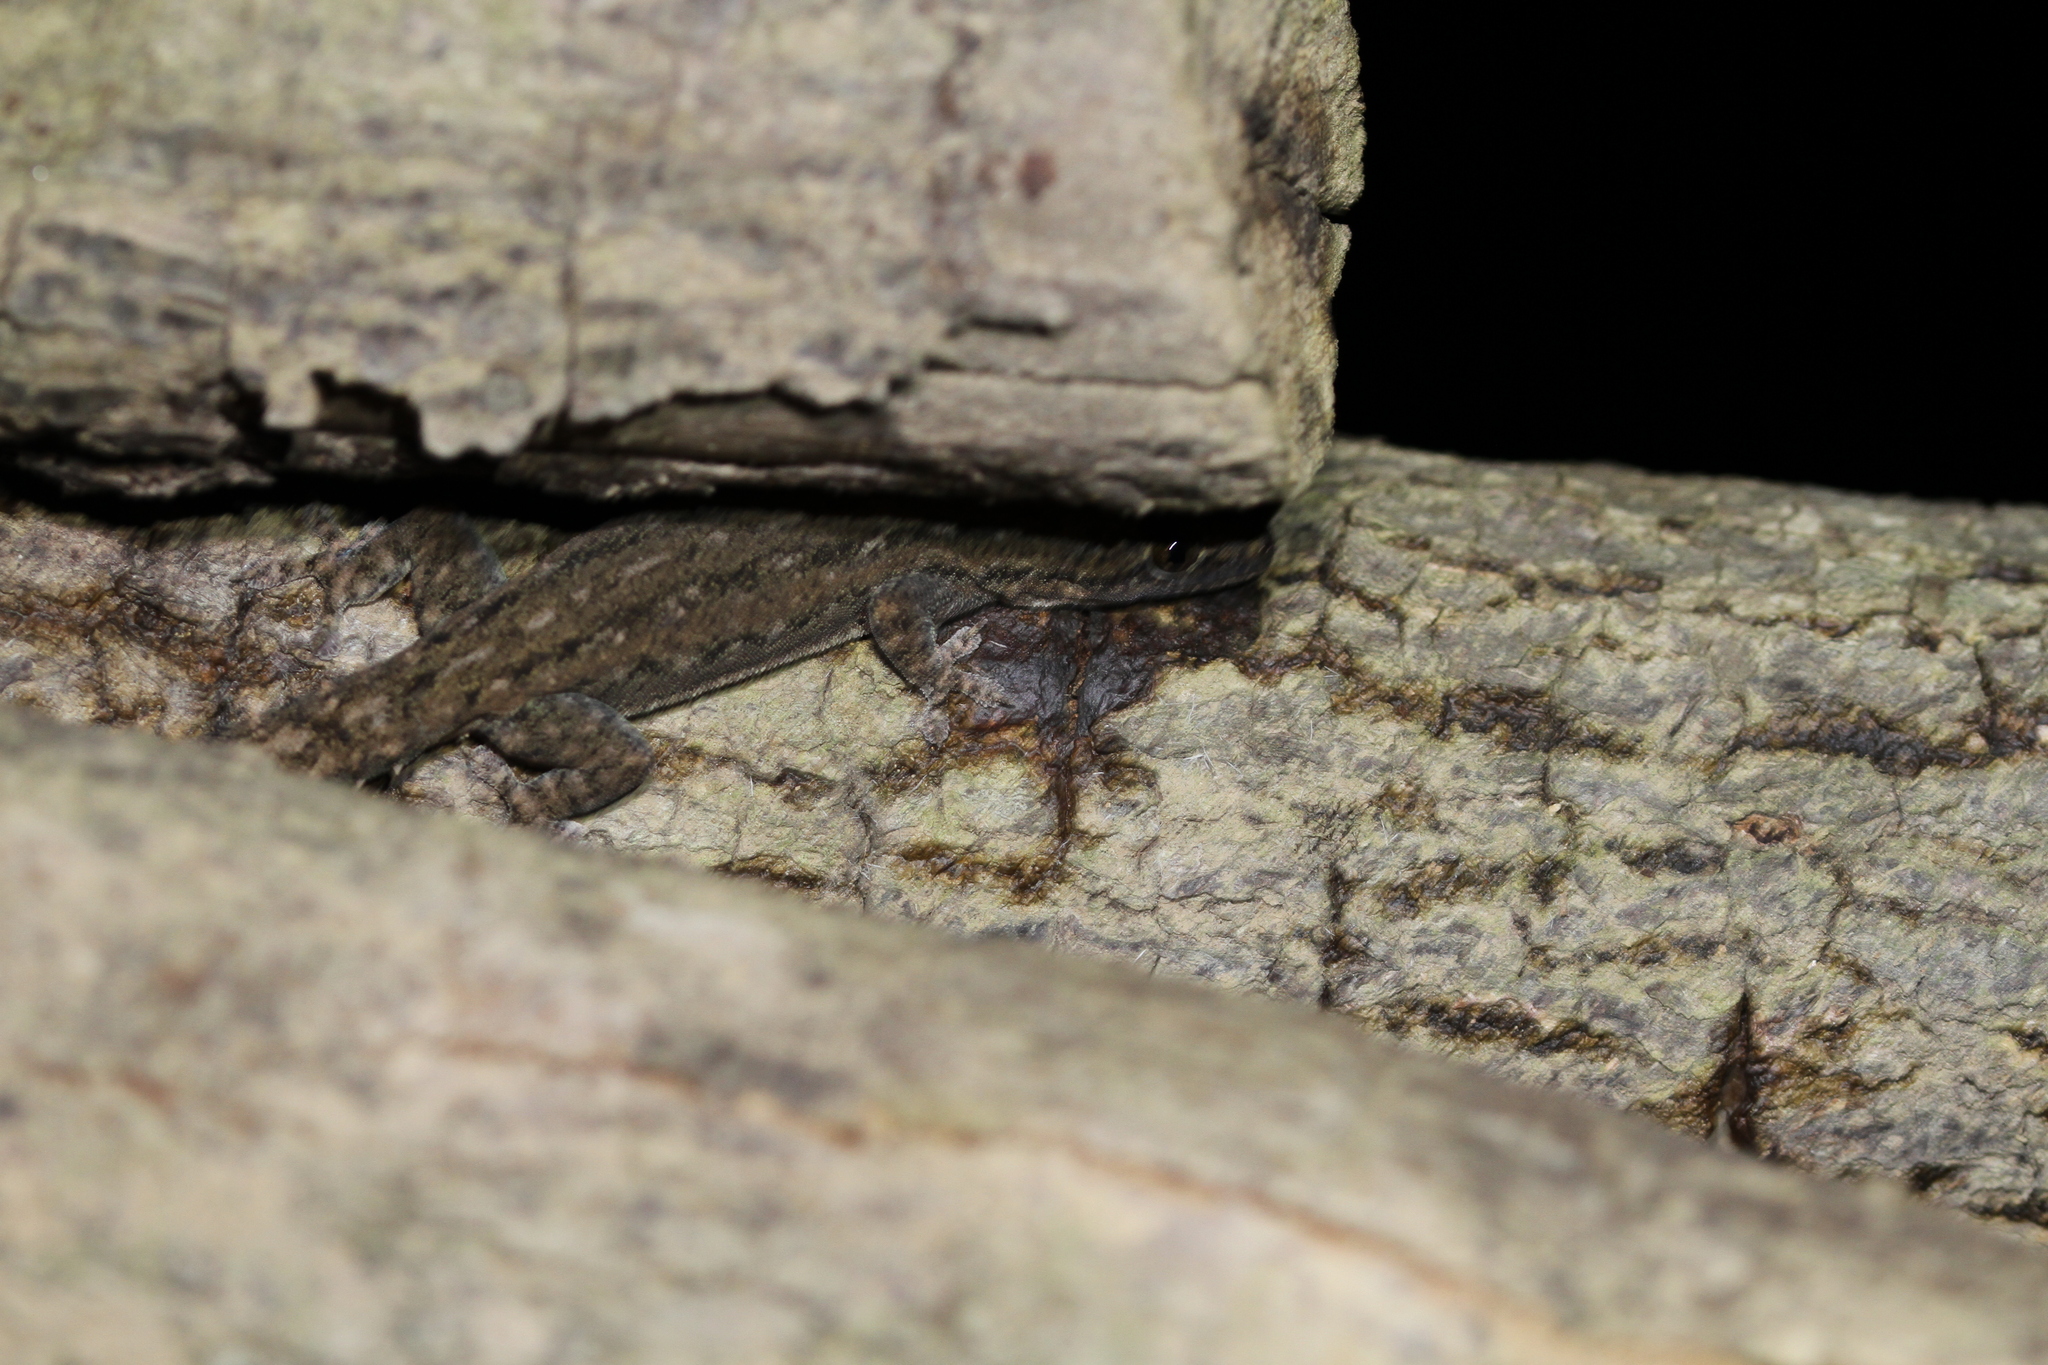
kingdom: Animalia
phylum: Chordata
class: Squamata
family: Gekkonidae
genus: Hemidactylus
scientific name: Hemidactylus frenatus
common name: Common house gecko
